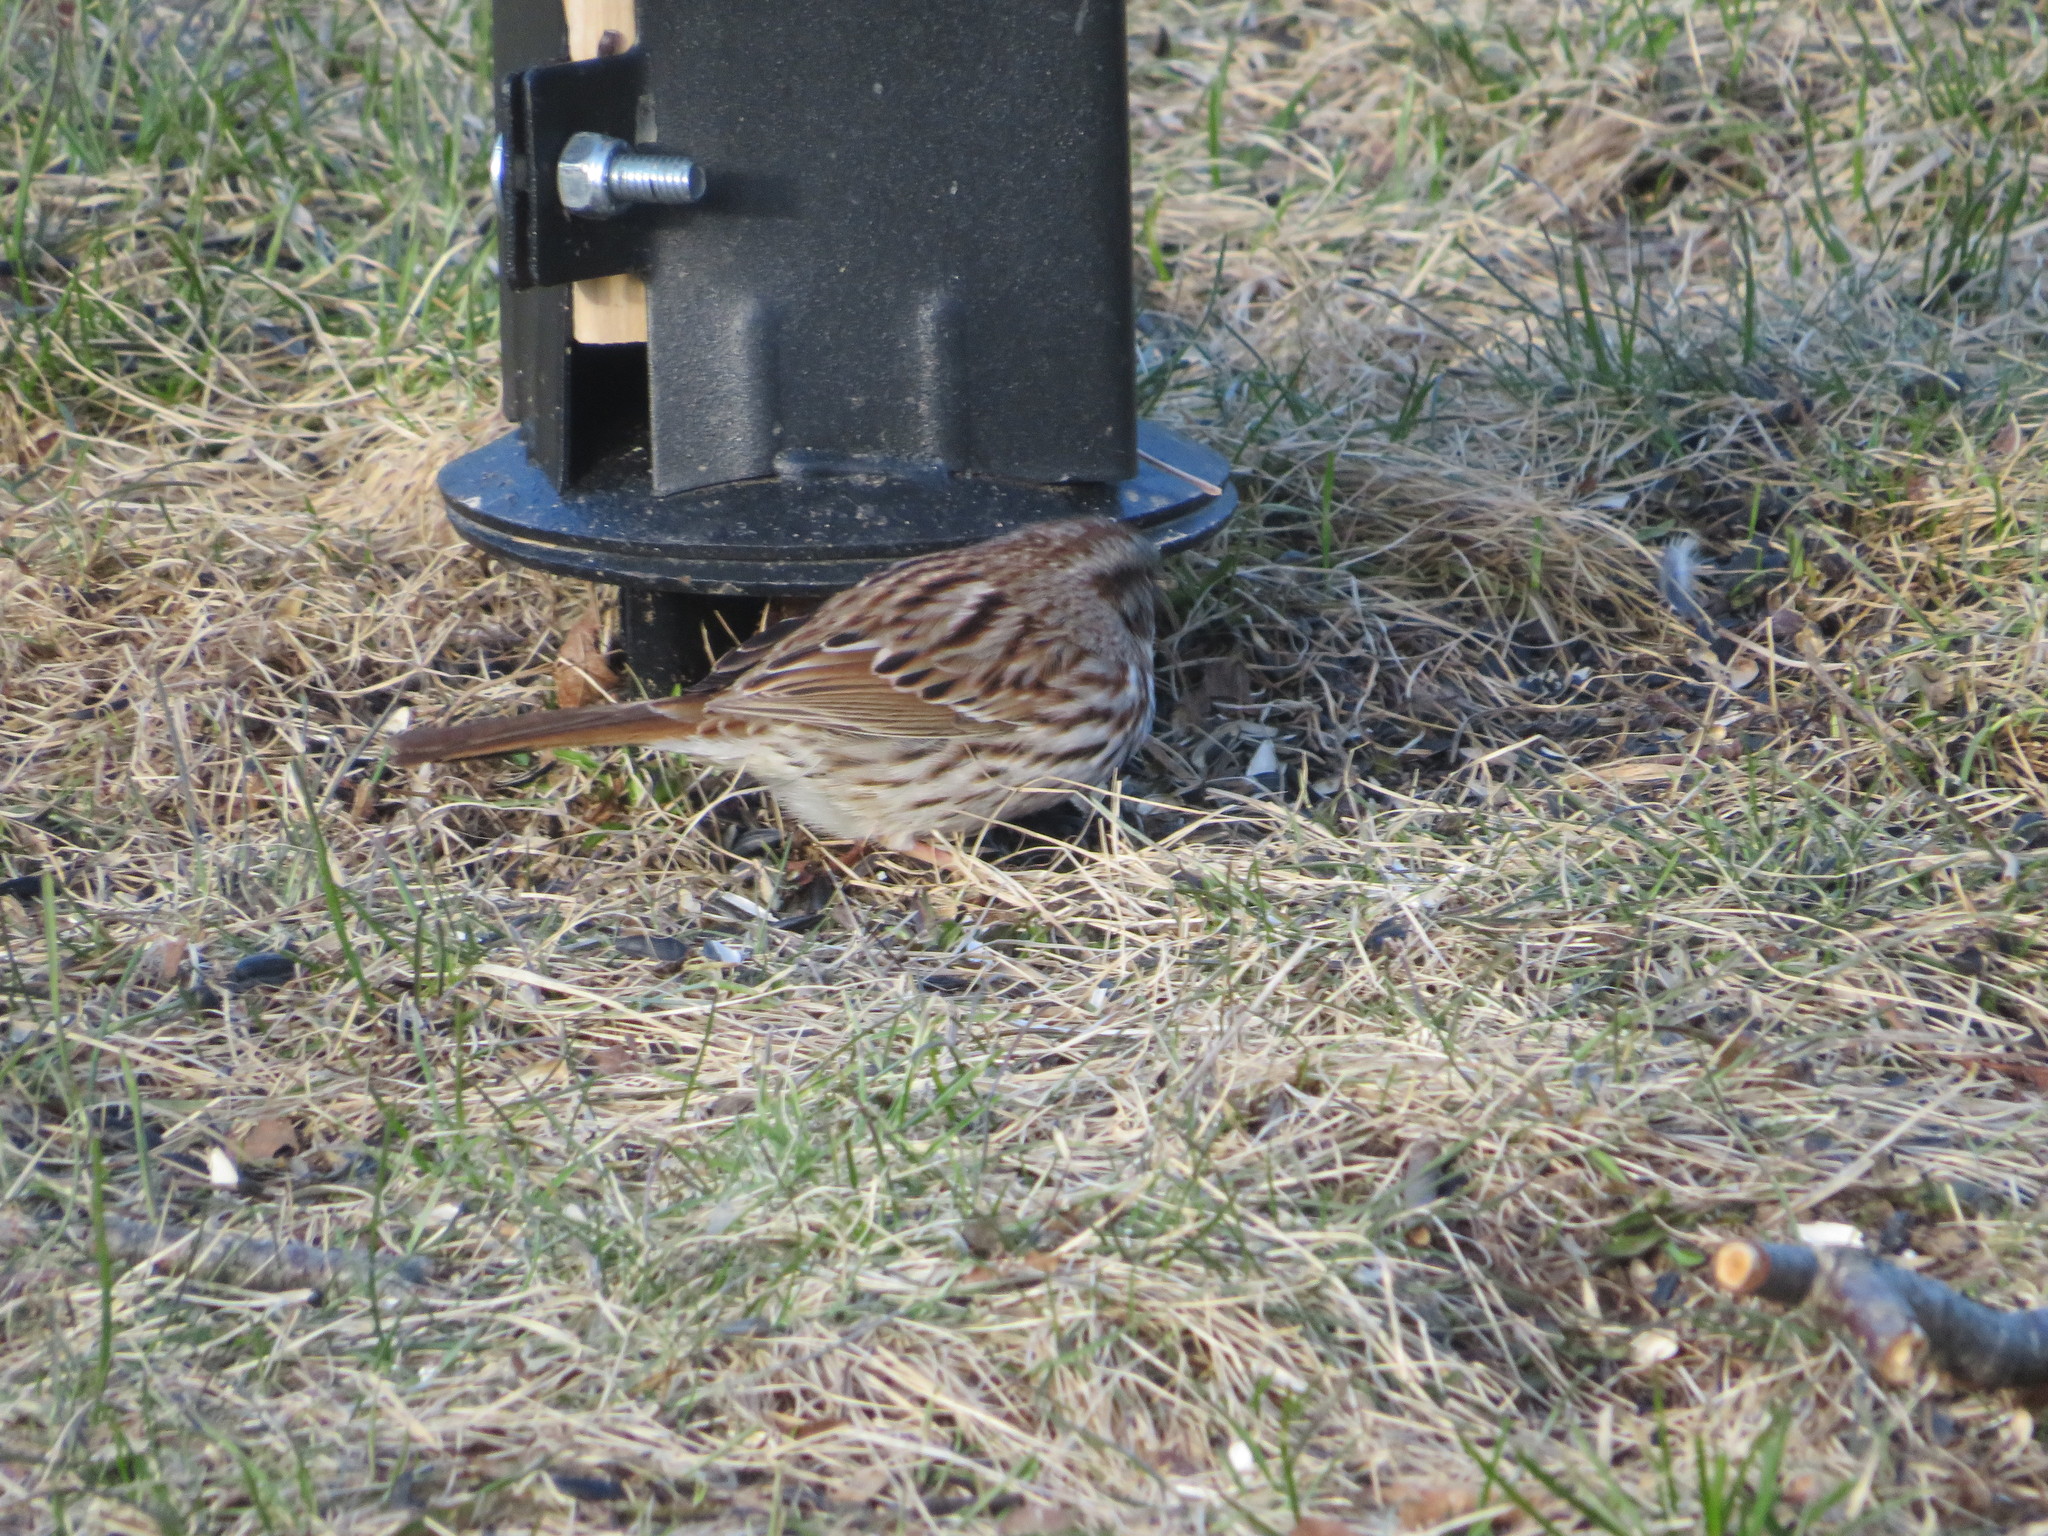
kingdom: Animalia
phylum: Chordata
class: Aves
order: Passeriformes
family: Passerellidae
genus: Melospiza
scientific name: Melospiza melodia
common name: Song sparrow
